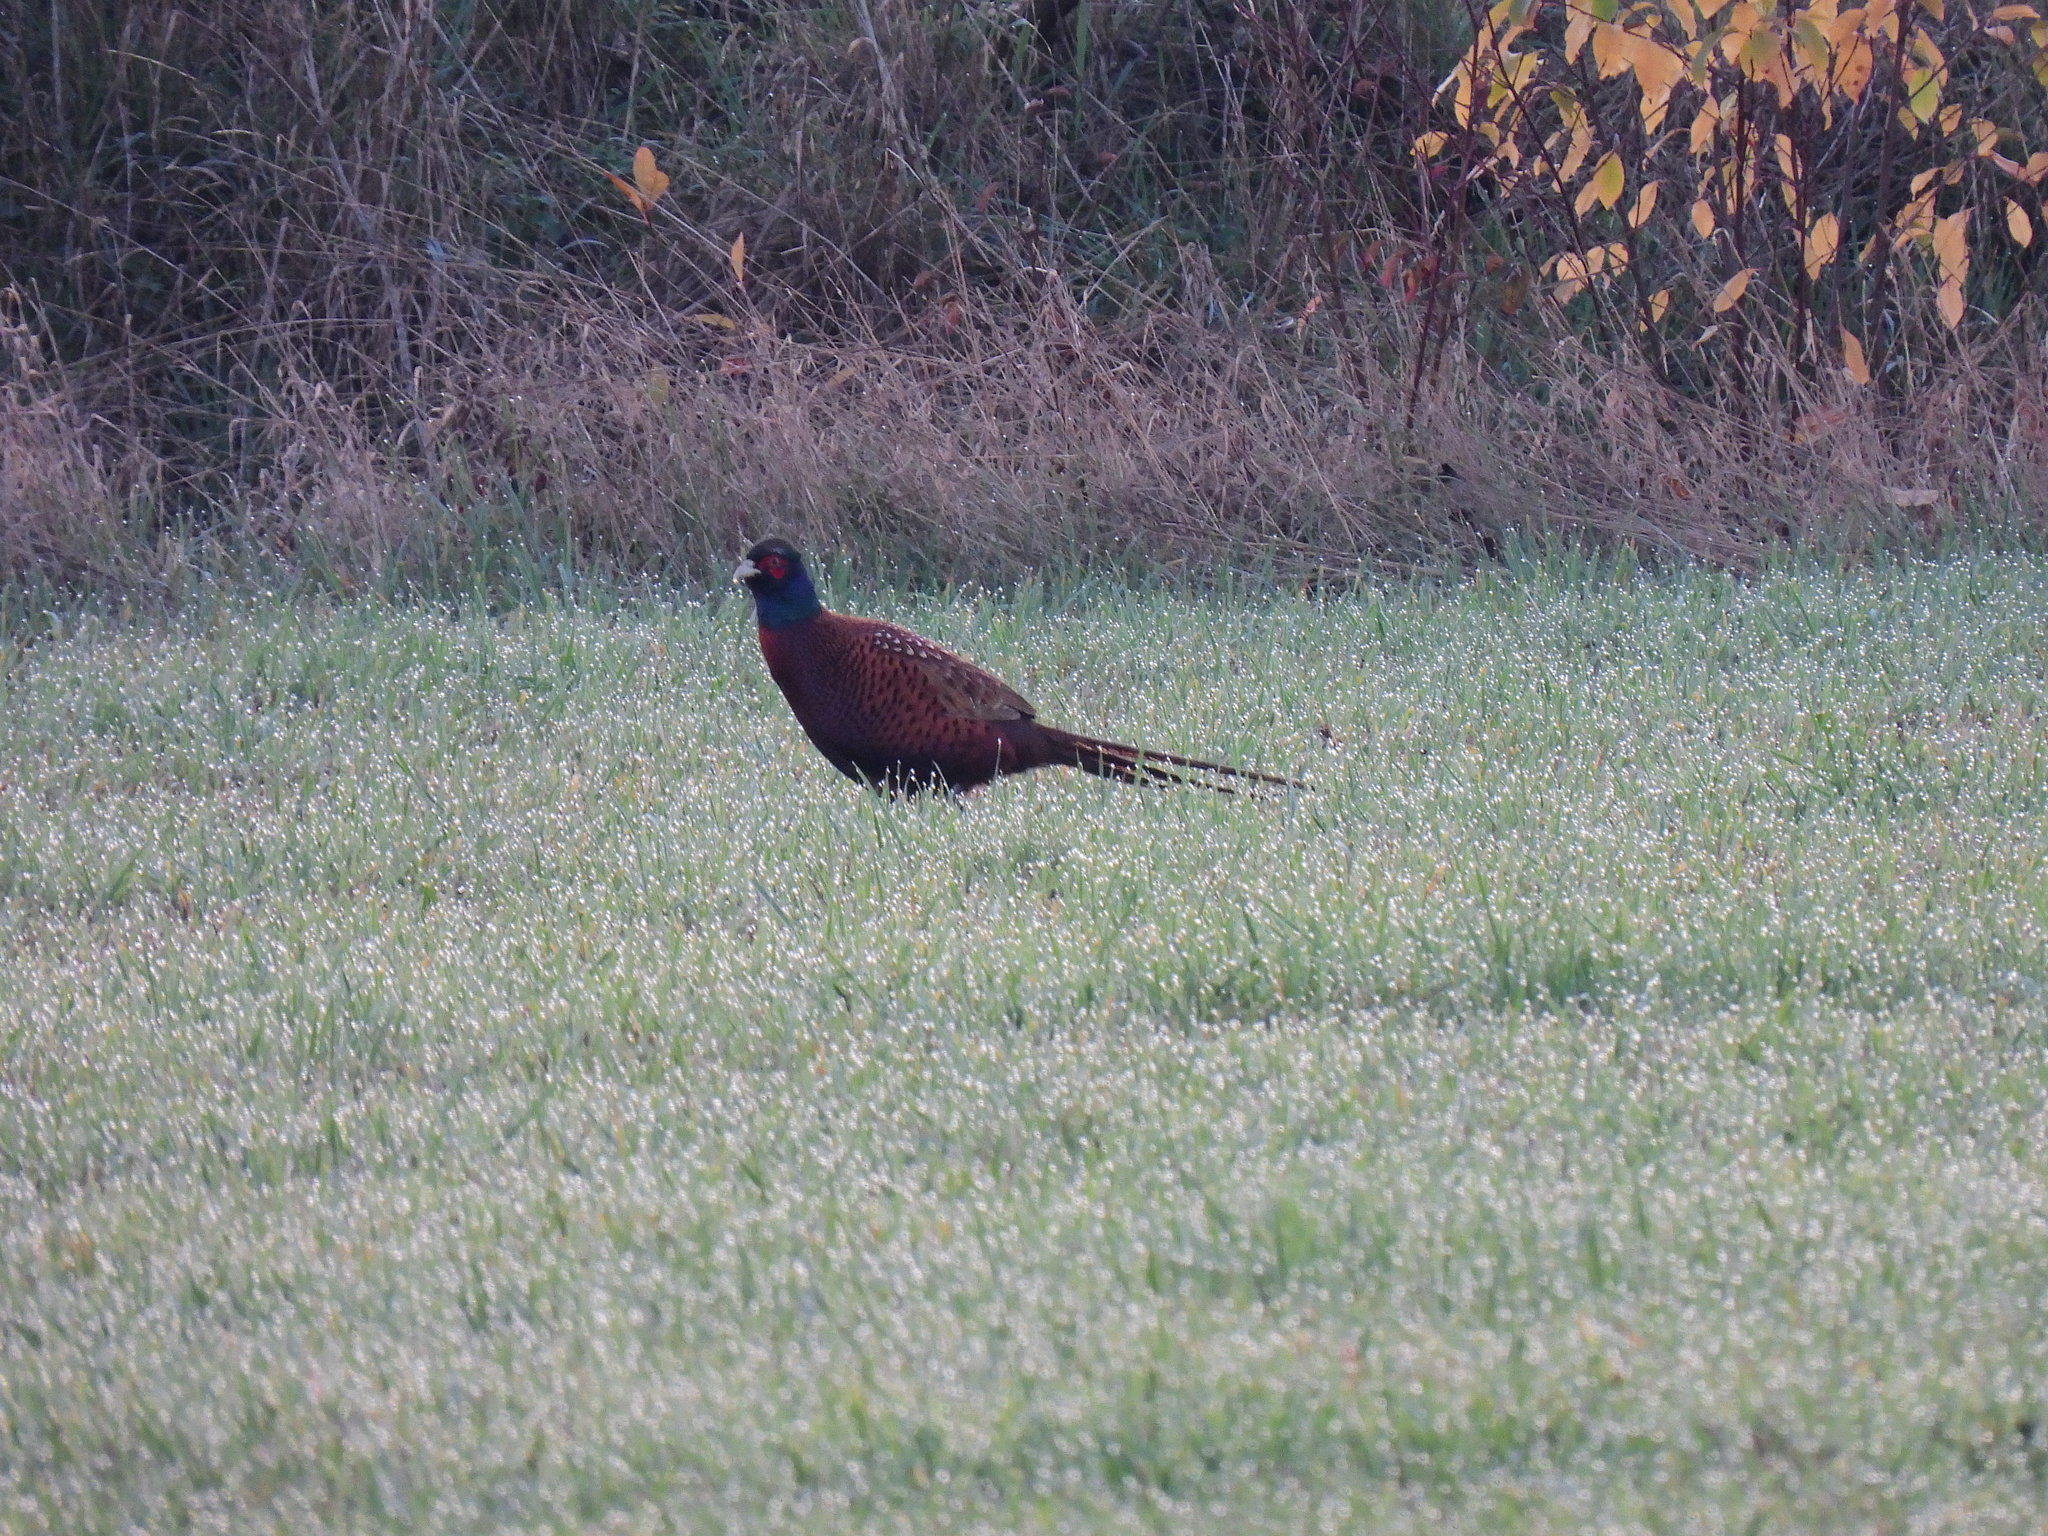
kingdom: Animalia
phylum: Chordata
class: Aves
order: Galliformes
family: Phasianidae
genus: Phasianus
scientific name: Phasianus colchicus
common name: Common pheasant
